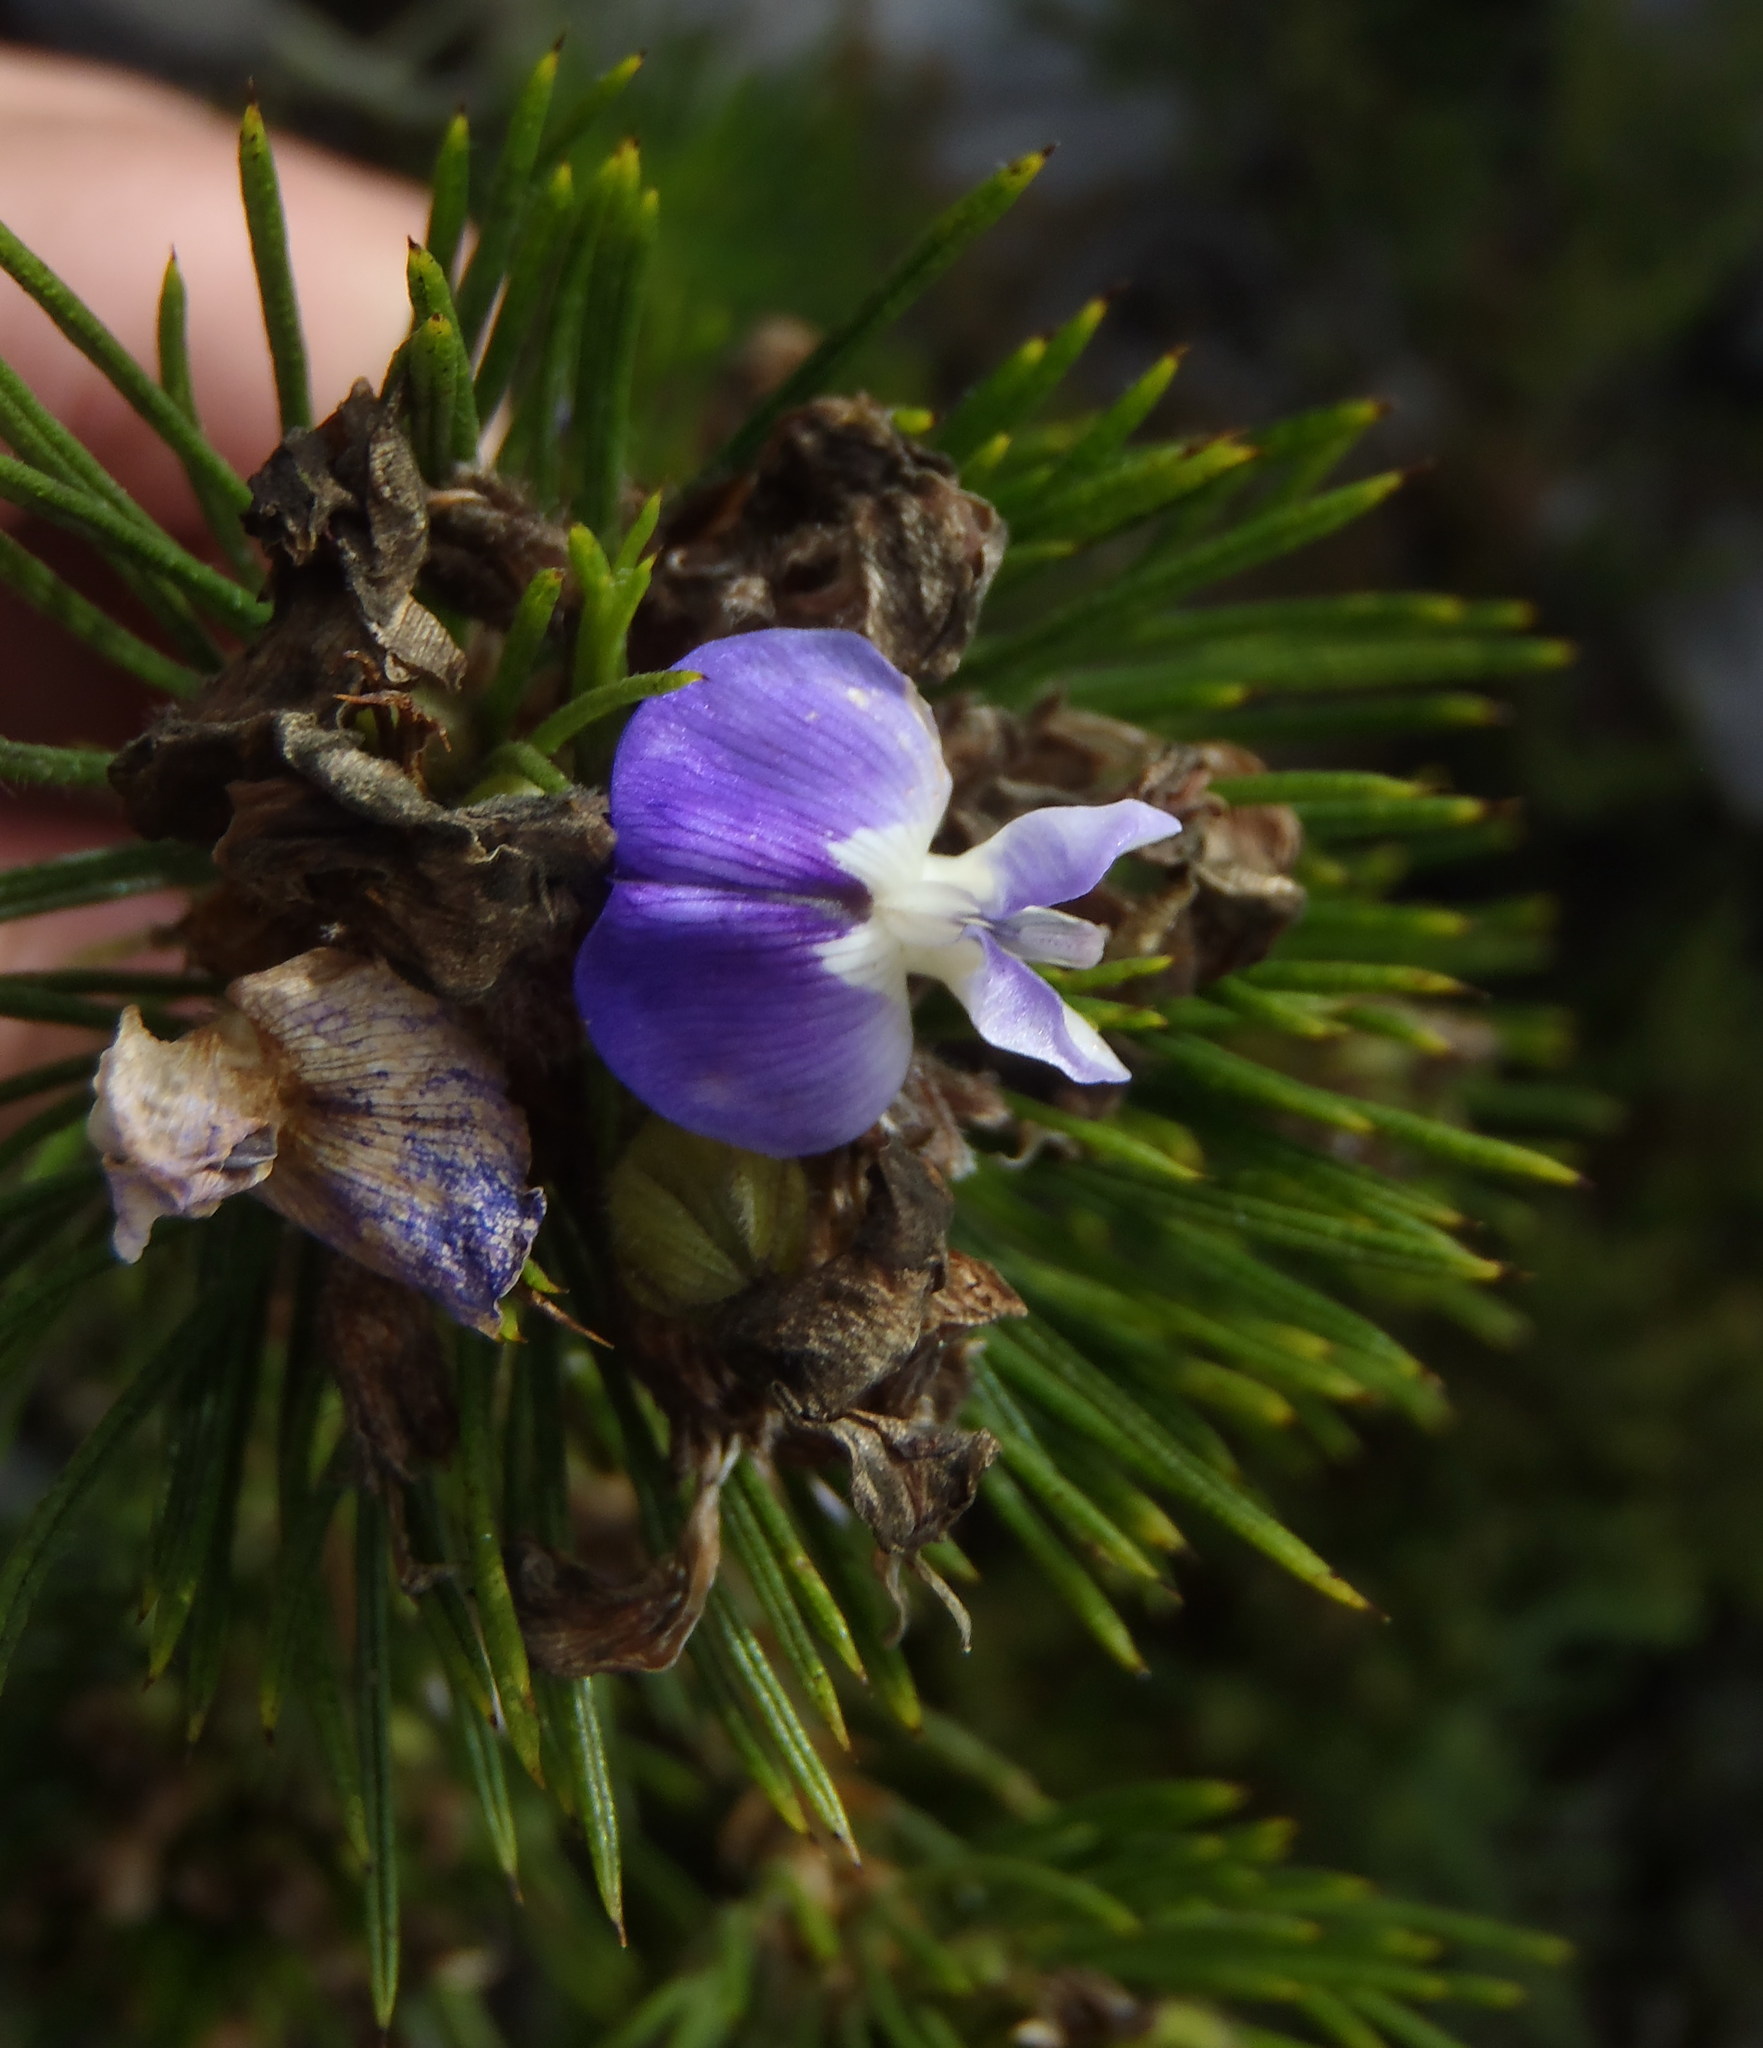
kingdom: Plantae
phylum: Tracheophyta
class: Magnoliopsida
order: Fabales
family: Fabaceae
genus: Psoralea
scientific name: Psoralea pinnata
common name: African scurfpea
